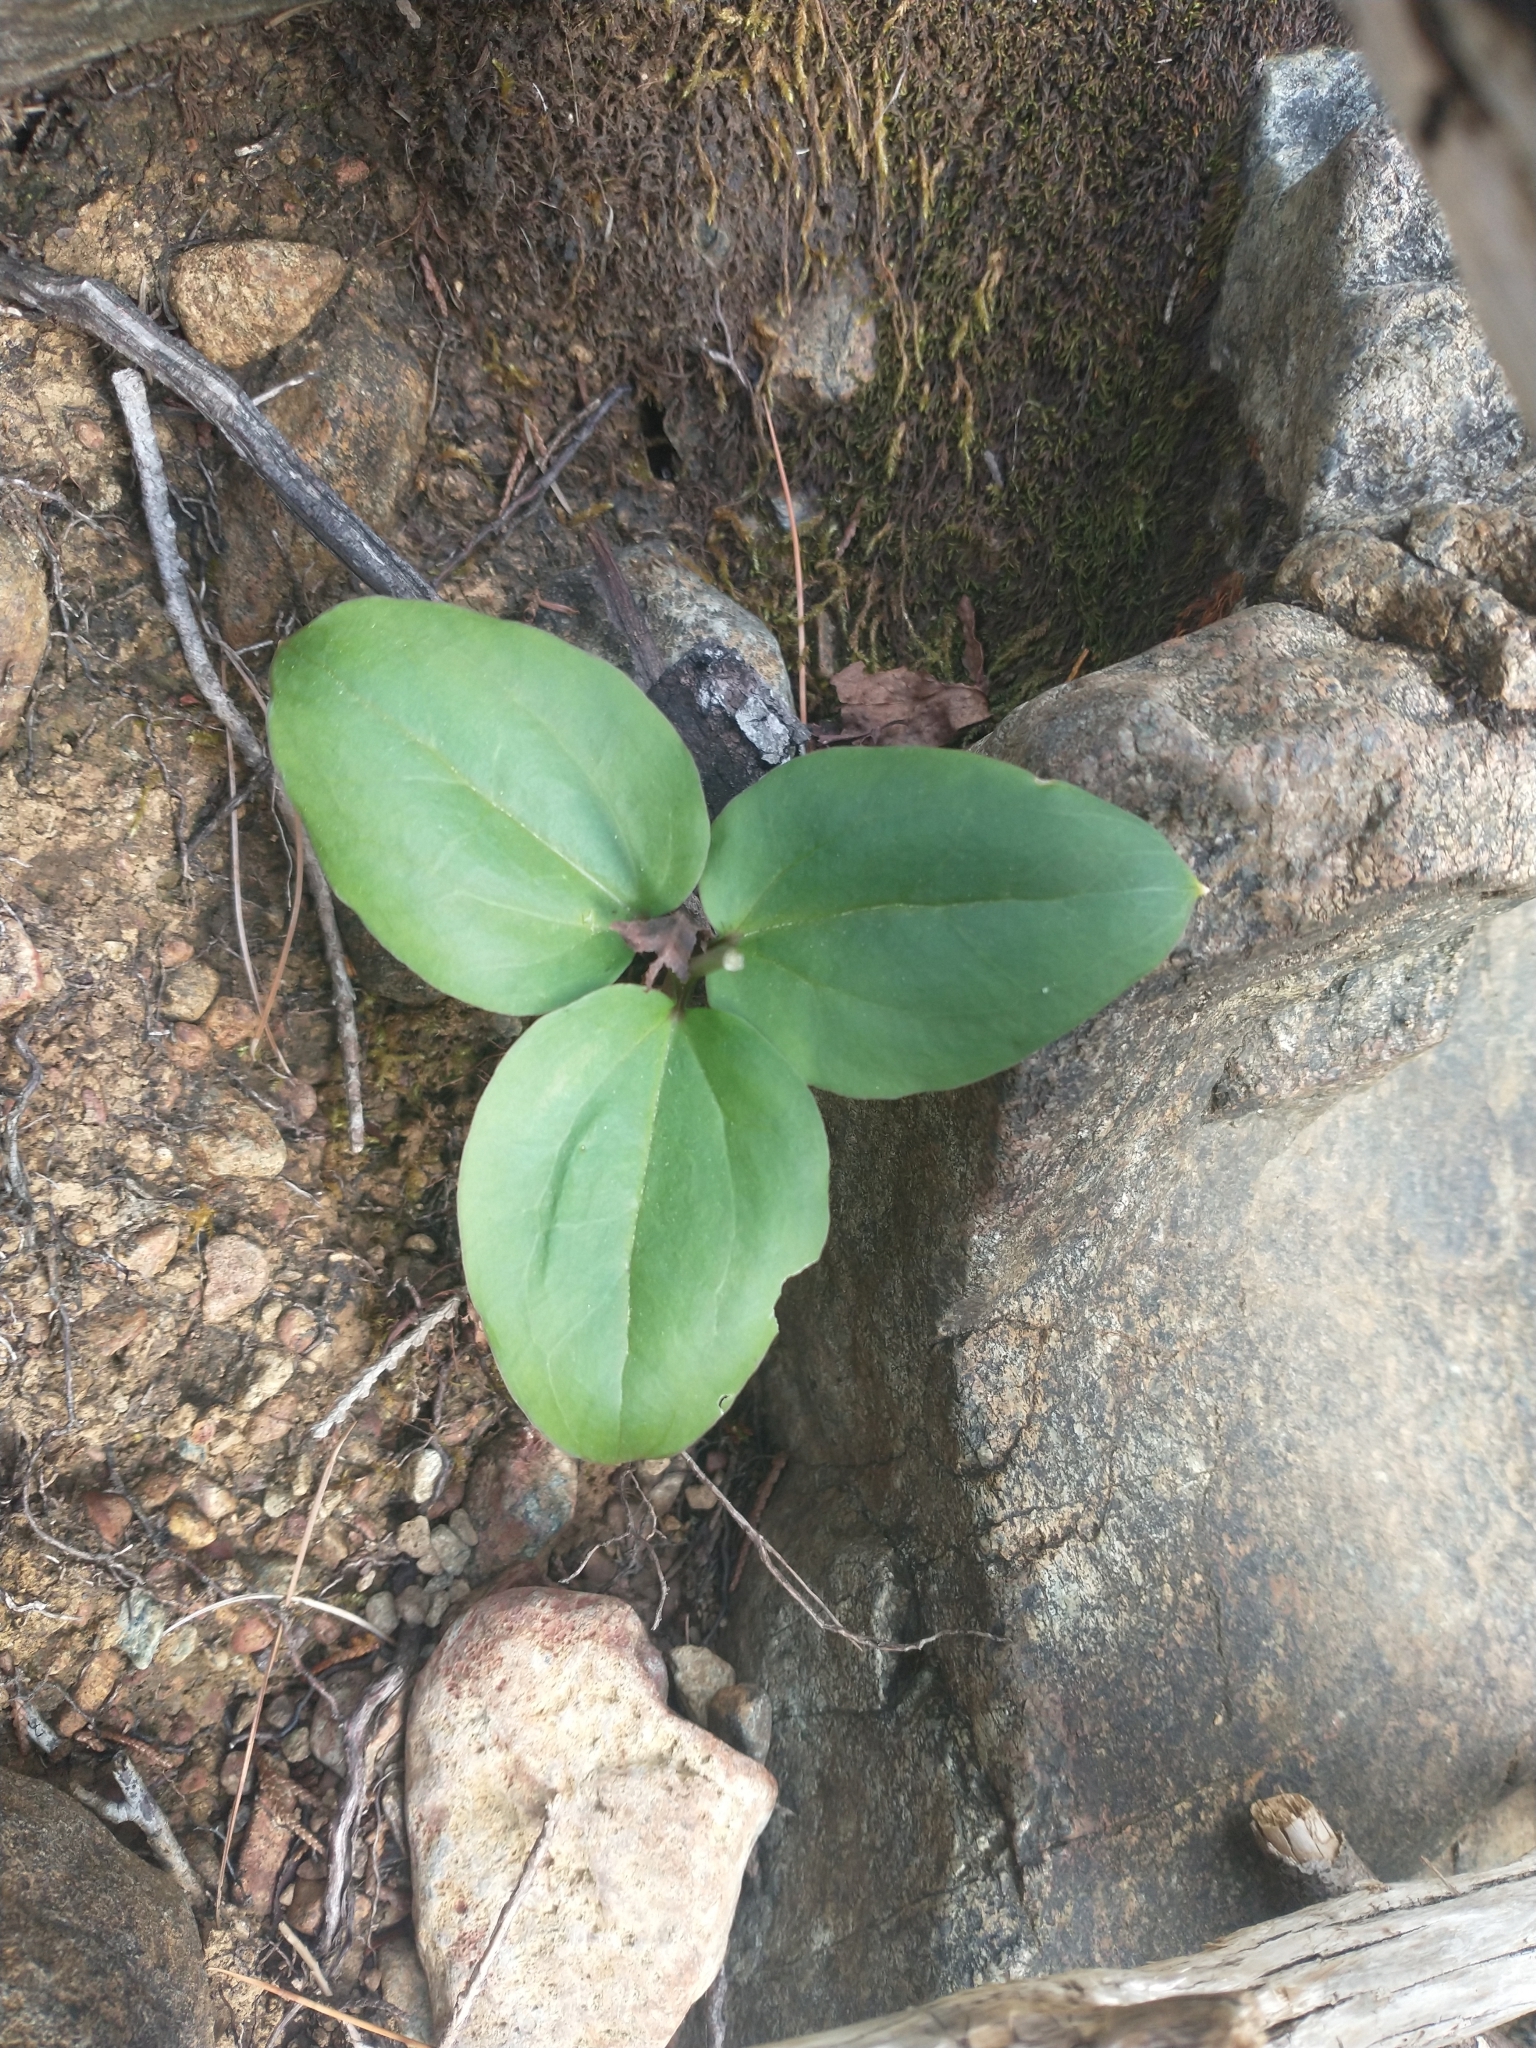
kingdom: Plantae
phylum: Tracheophyta
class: Liliopsida
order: Liliales
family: Melanthiaceae
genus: Pseudotrillium
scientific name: Pseudotrillium rivale
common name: Brook wakerobin
